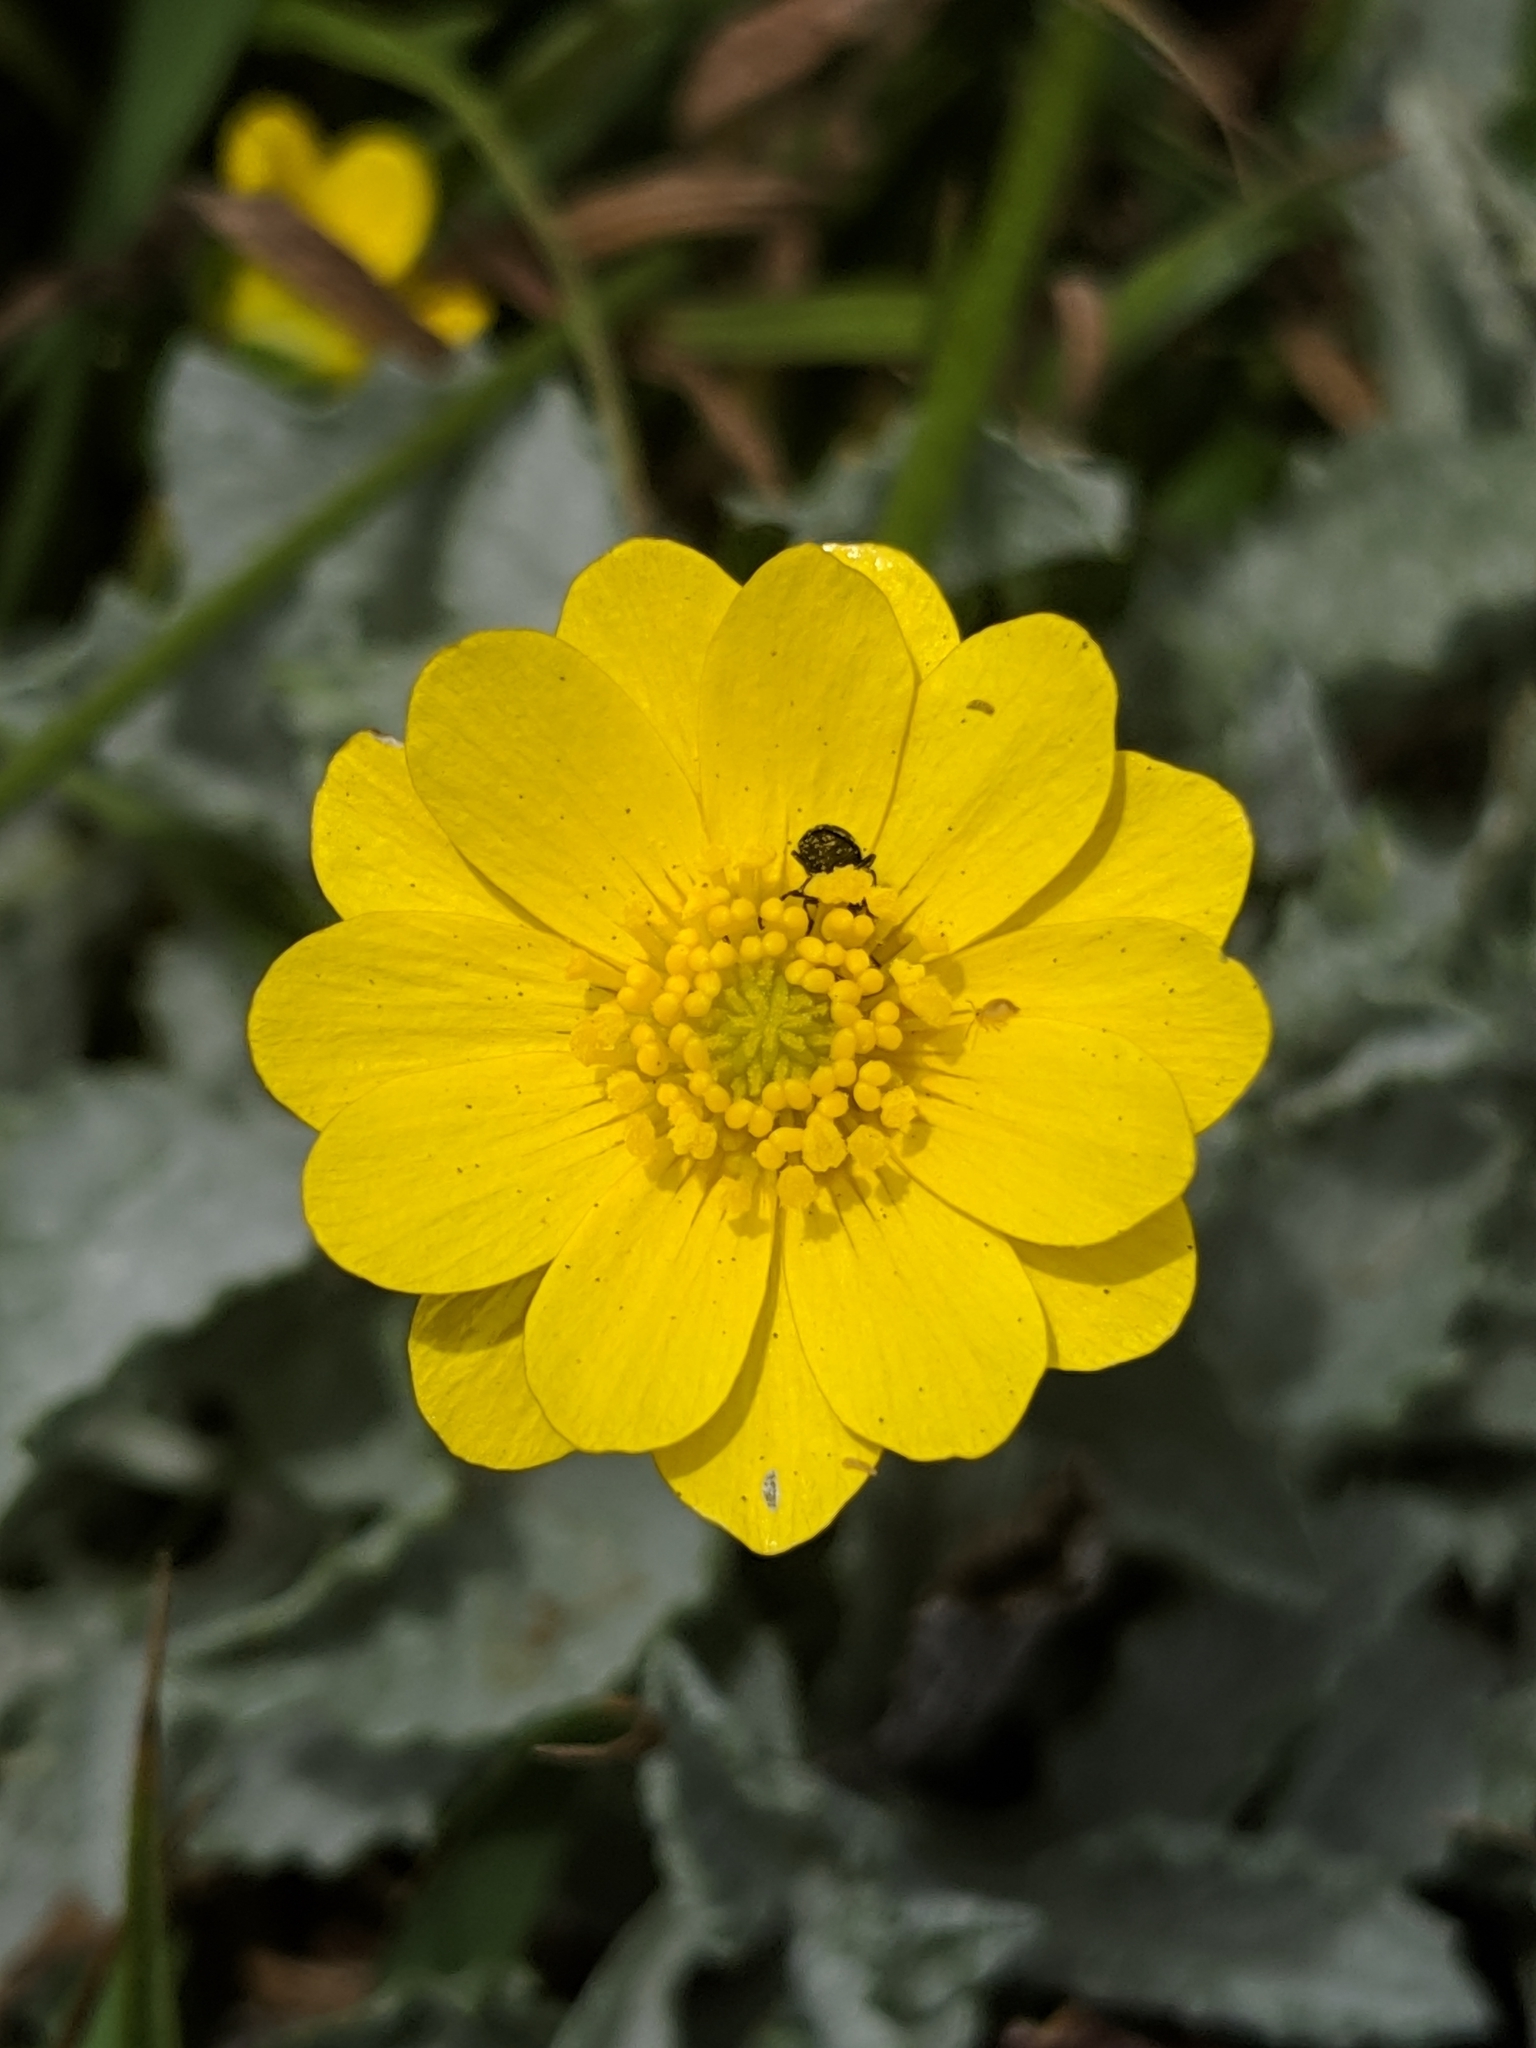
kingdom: Plantae
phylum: Tracheophyta
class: Magnoliopsida
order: Ranunculales
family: Ranunculaceae
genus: Ranunculus
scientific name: Ranunculus californicus
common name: California buttercup
